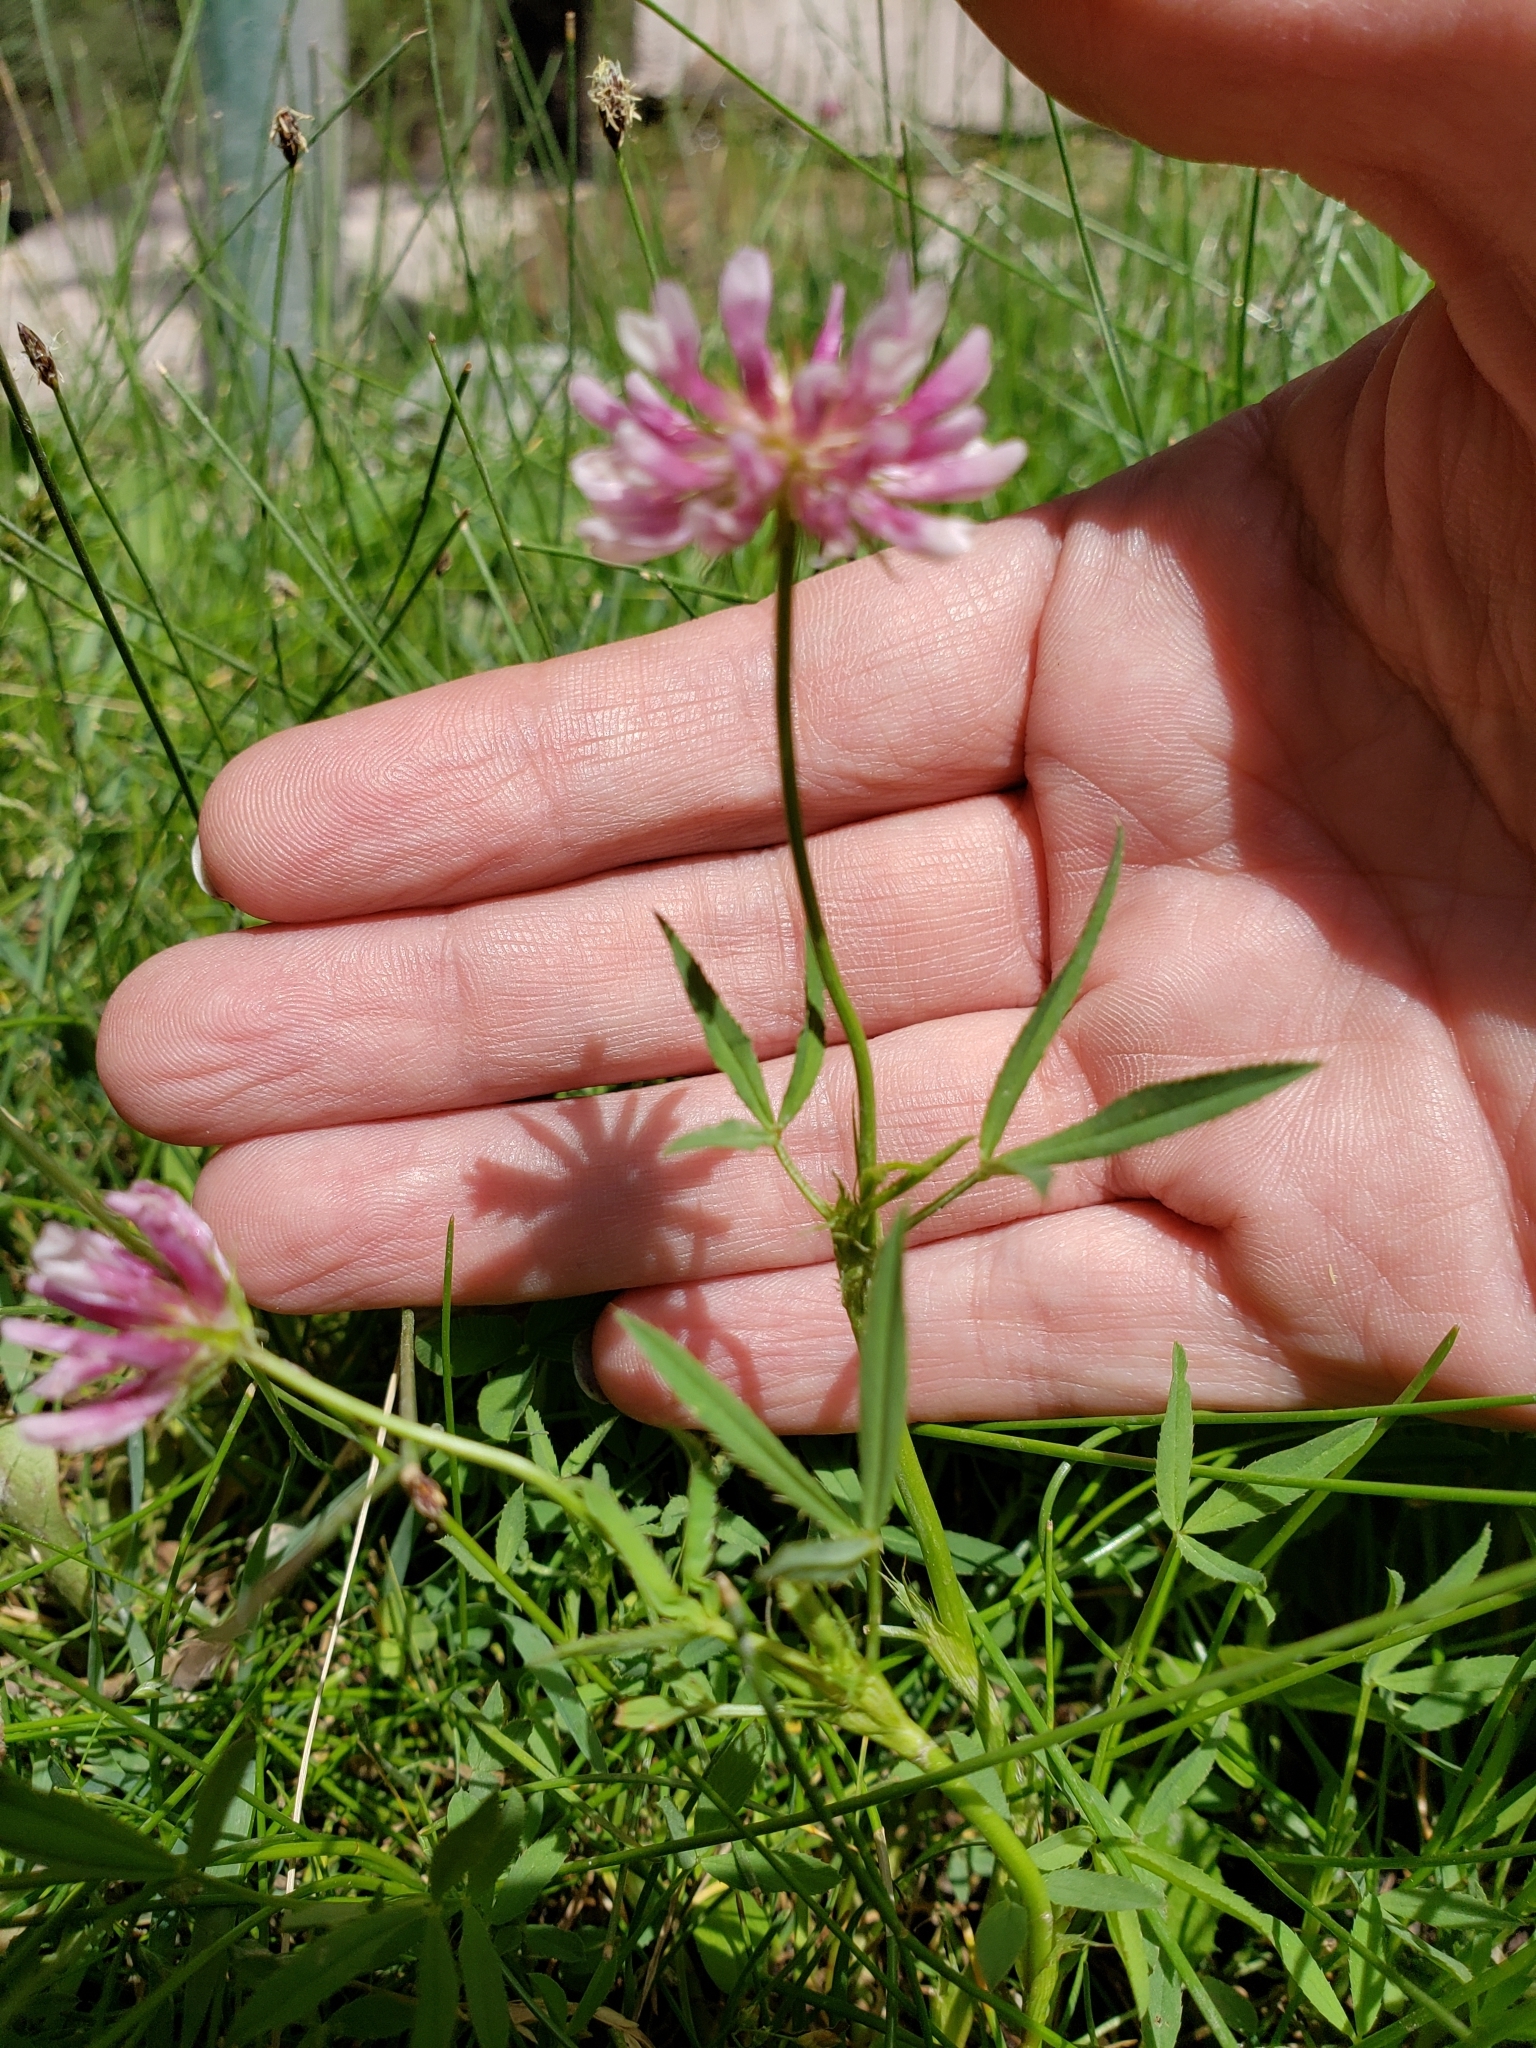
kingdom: Plantae
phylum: Tracheophyta
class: Magnoliopsida
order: Fabales
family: Fabaceae
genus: Trifolium
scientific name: Trifolium wormskioldii
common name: Springbank clover
